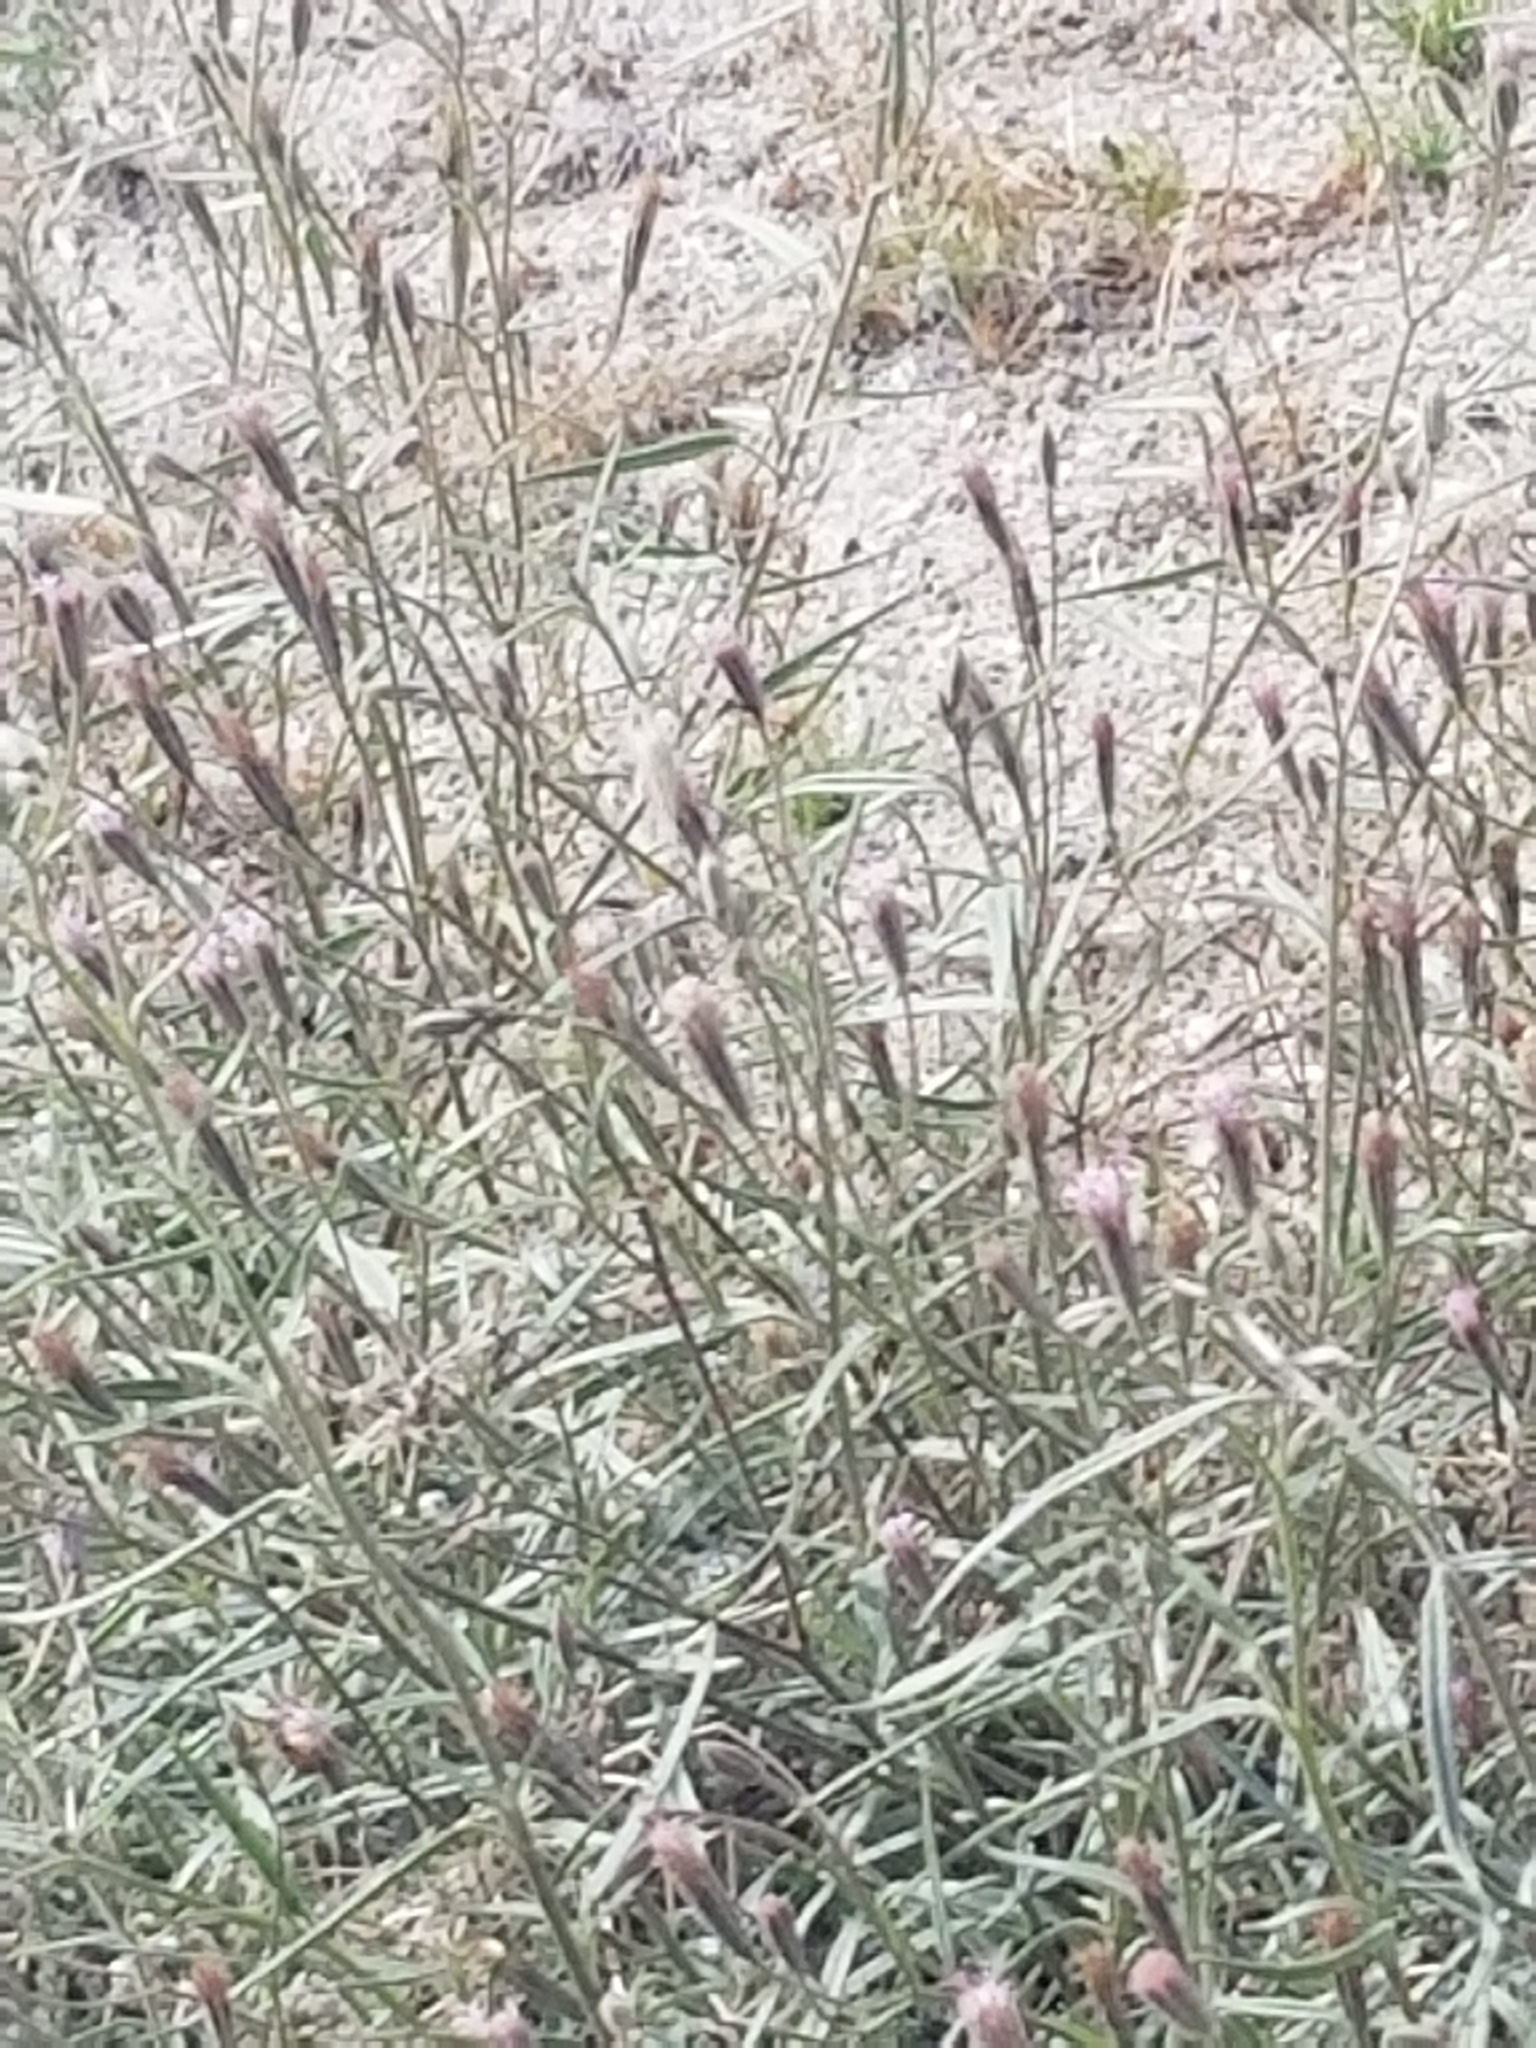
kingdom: Animalia
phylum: Arthropoda
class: Insecta
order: Lepidoptera
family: Pieridae
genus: Pontia
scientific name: Pontia protodice
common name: Checkered white
